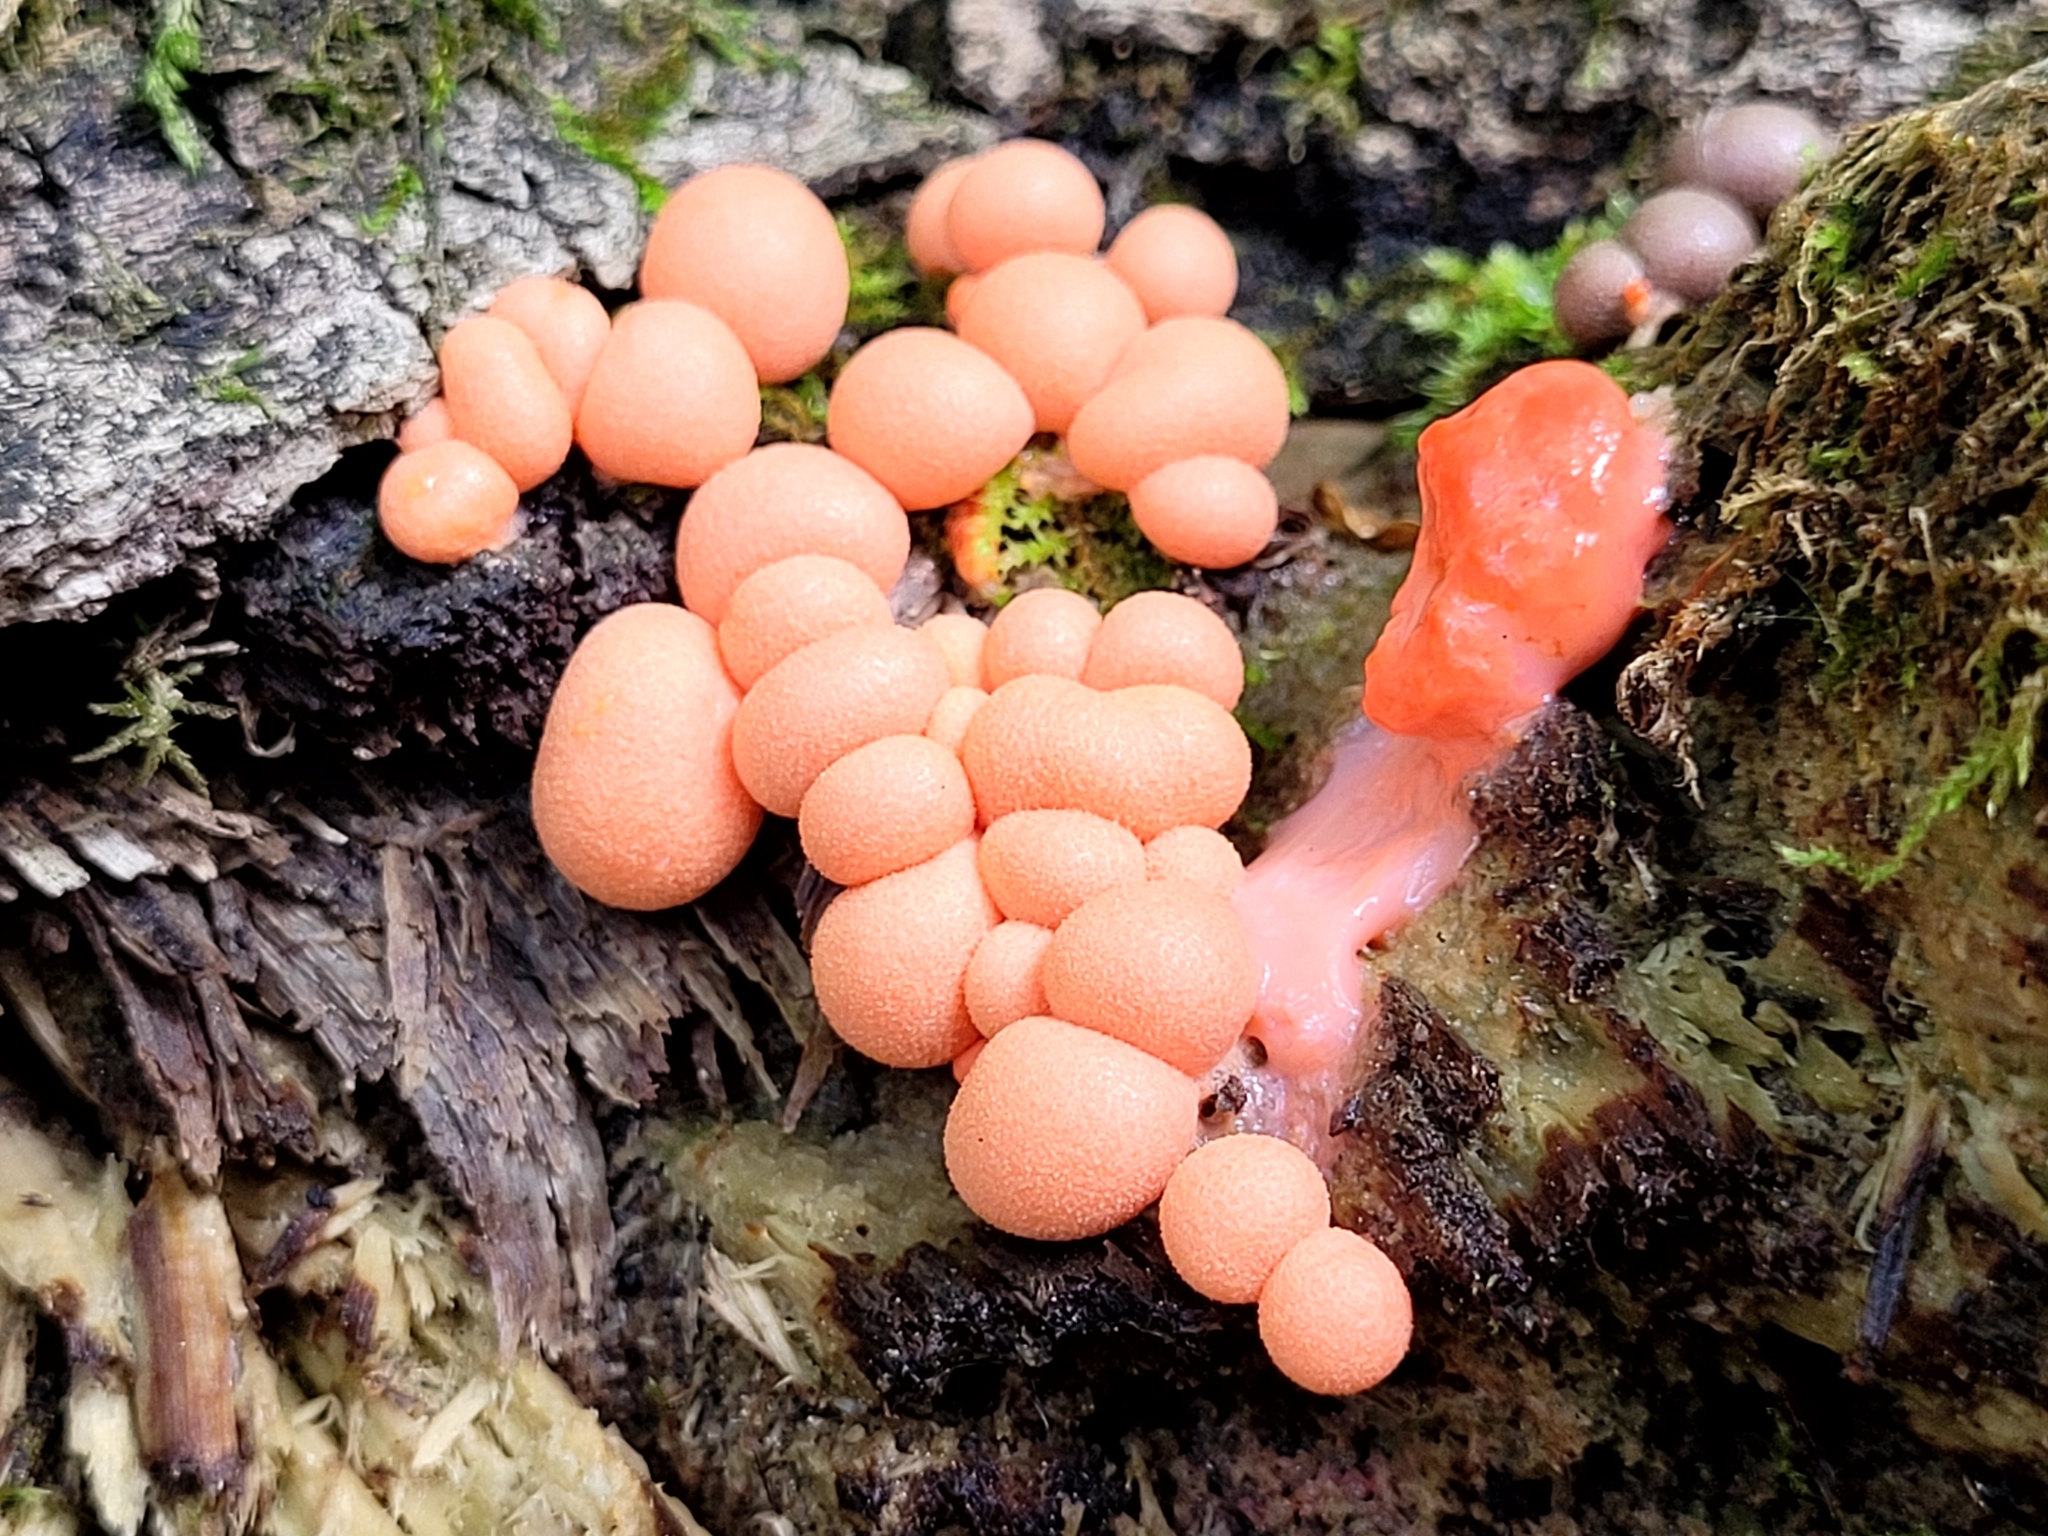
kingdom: Protozoa
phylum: Mycetozoa
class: Myxomycetes
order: Cribrariales
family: Tubiferaceae
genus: Lycogala
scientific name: Lycogala epidendrum
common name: Wolf's milk
